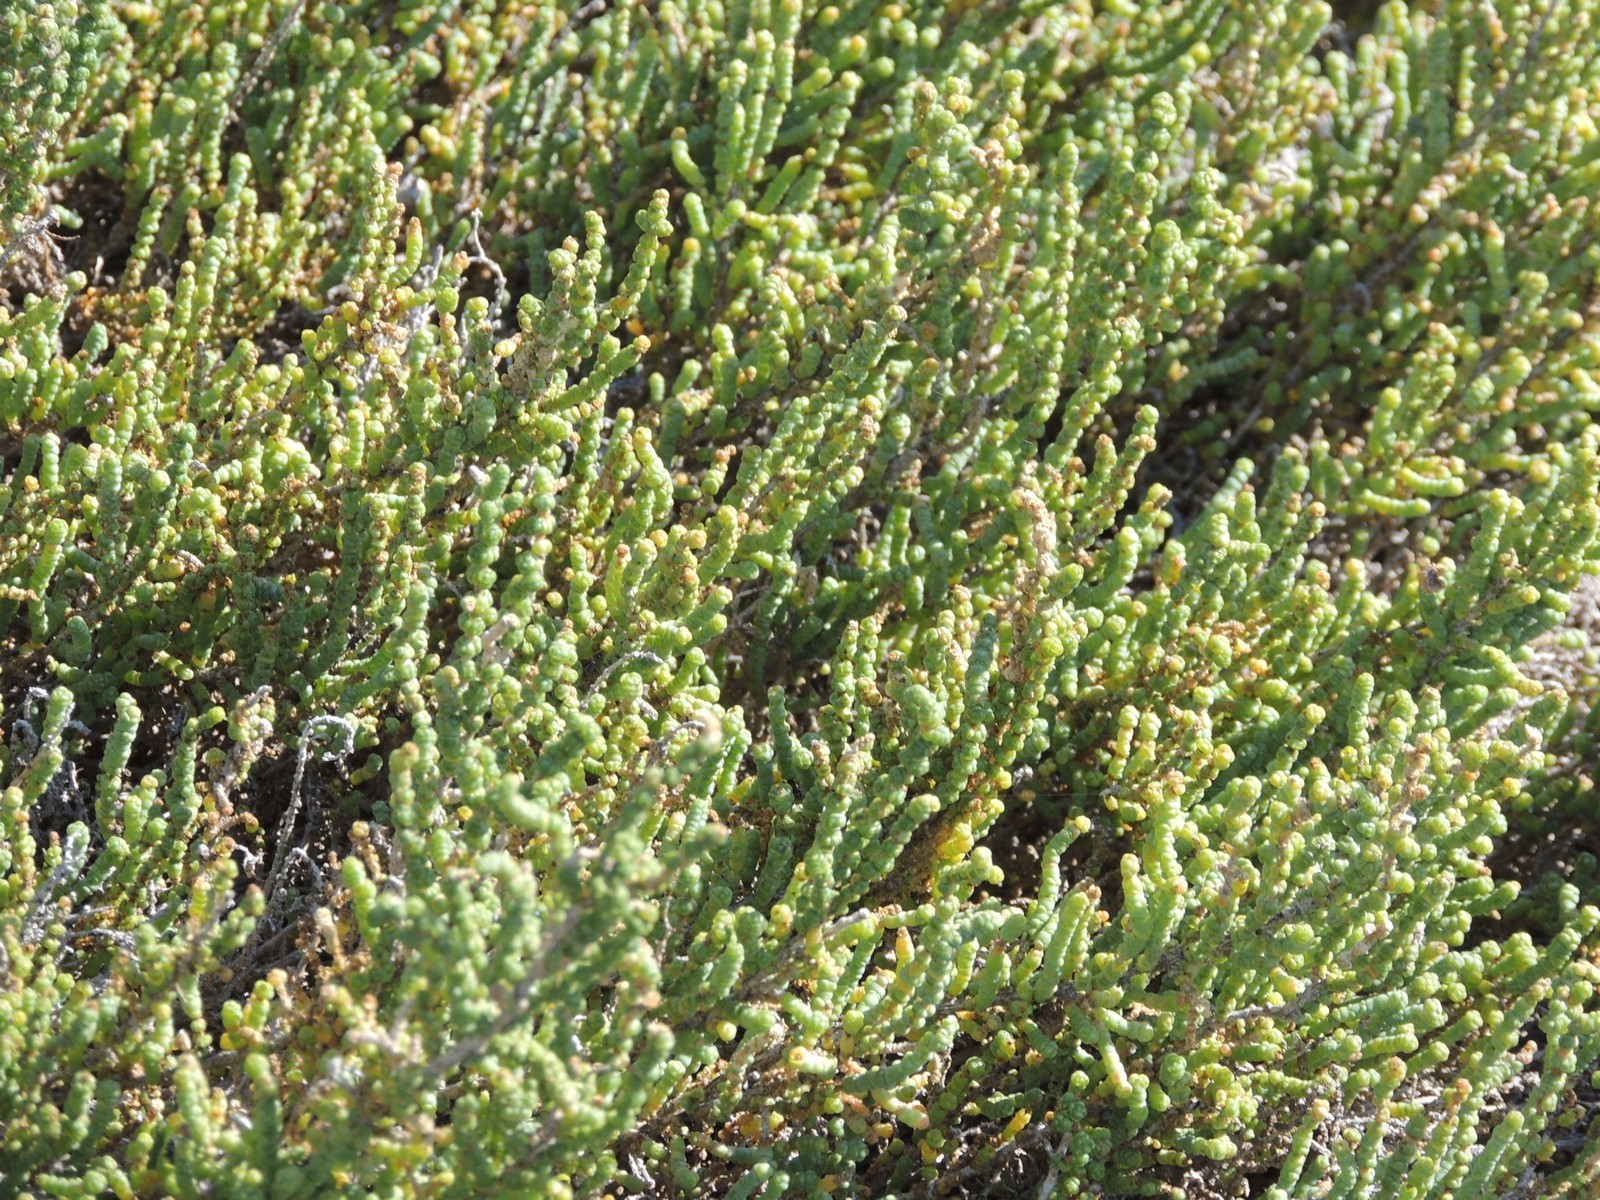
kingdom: Plantae
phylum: Tracheophyta
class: Magnoliopsida
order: Caryophyllales
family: Amaranthaceae
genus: Halocnemum
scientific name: Halocnemum strobilaceum
